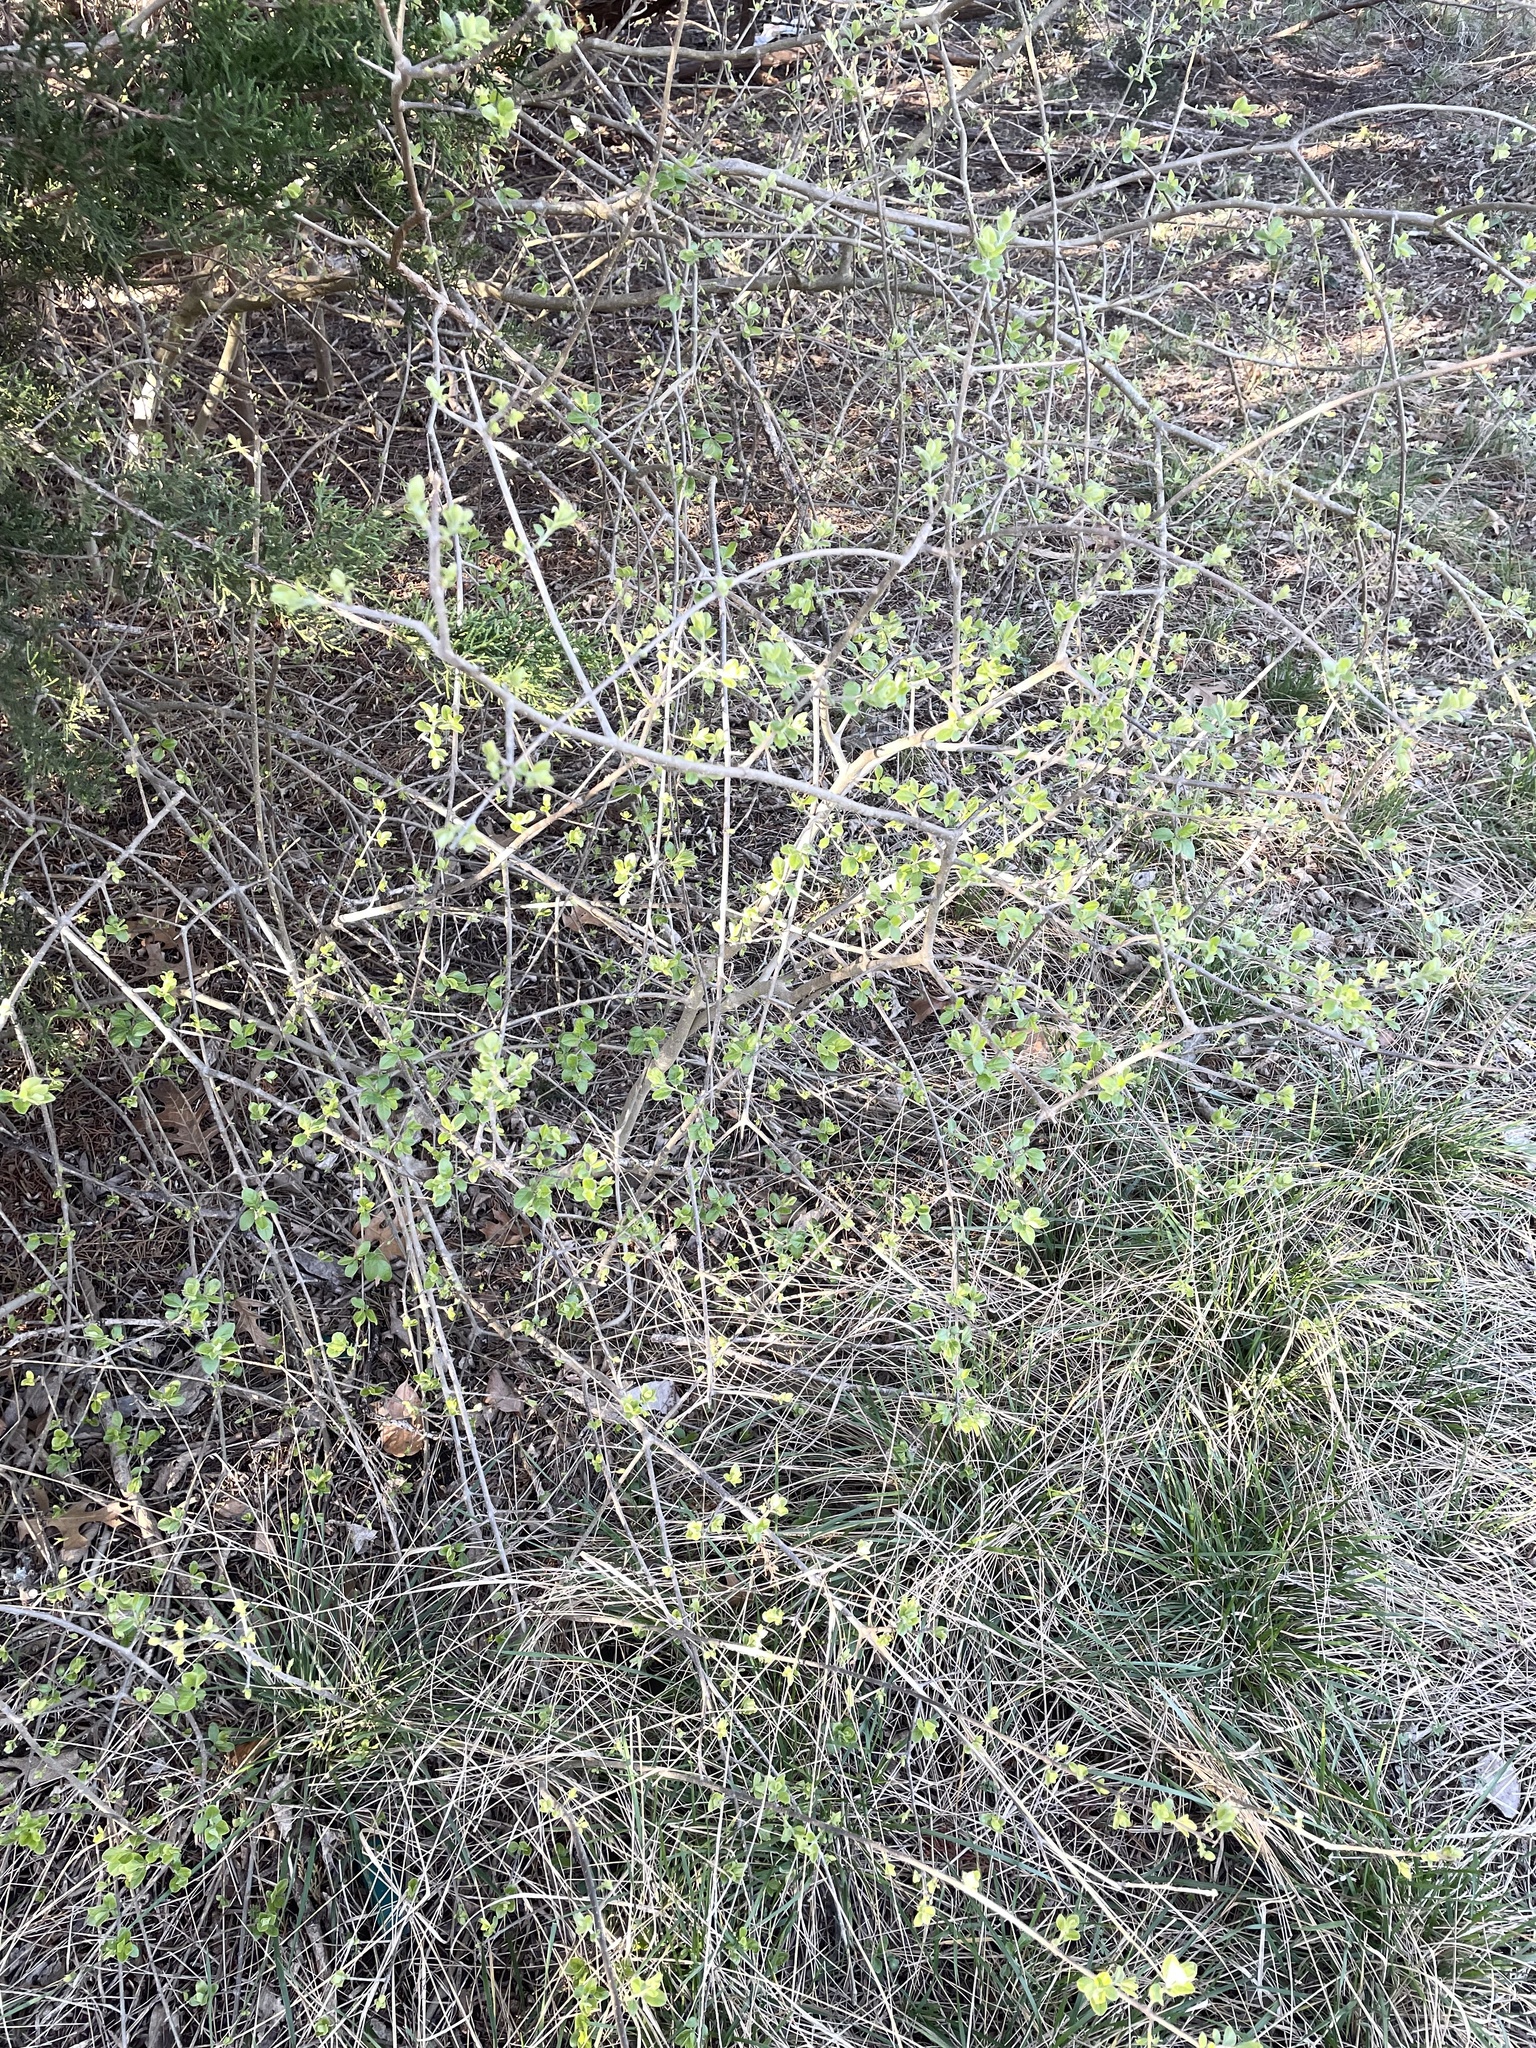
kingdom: Plantae
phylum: Tracheophyta
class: Magnoliopsida
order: Lamiales
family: Oleaceae
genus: Forestiera
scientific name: Forestiera pubescens
